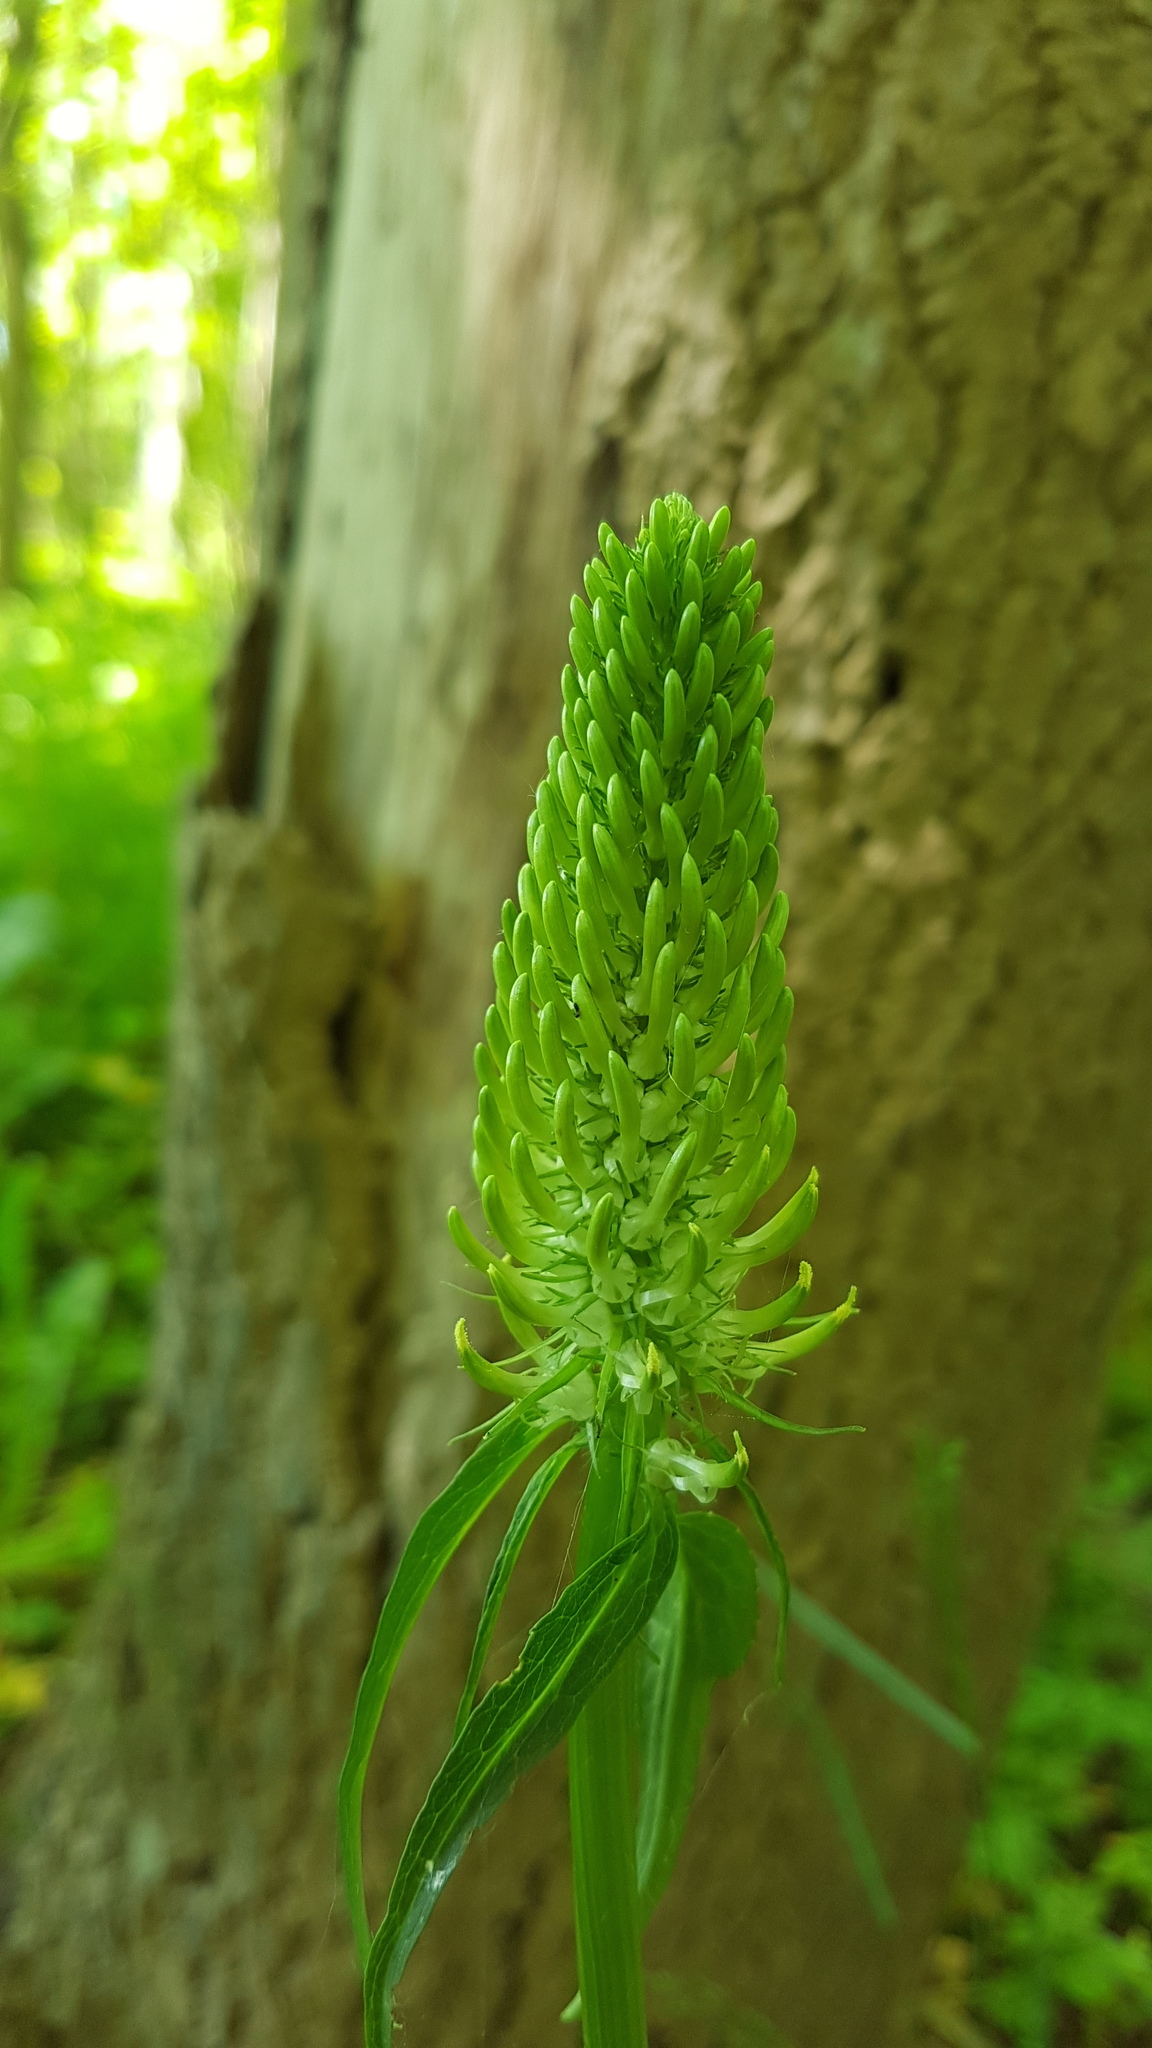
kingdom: Plantae
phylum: Tracheophyta
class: Magnoliopsida
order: Asterales
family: Campanulaceae
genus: Phyteuma
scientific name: Phyteuma spicatum
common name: Spiked rampion
